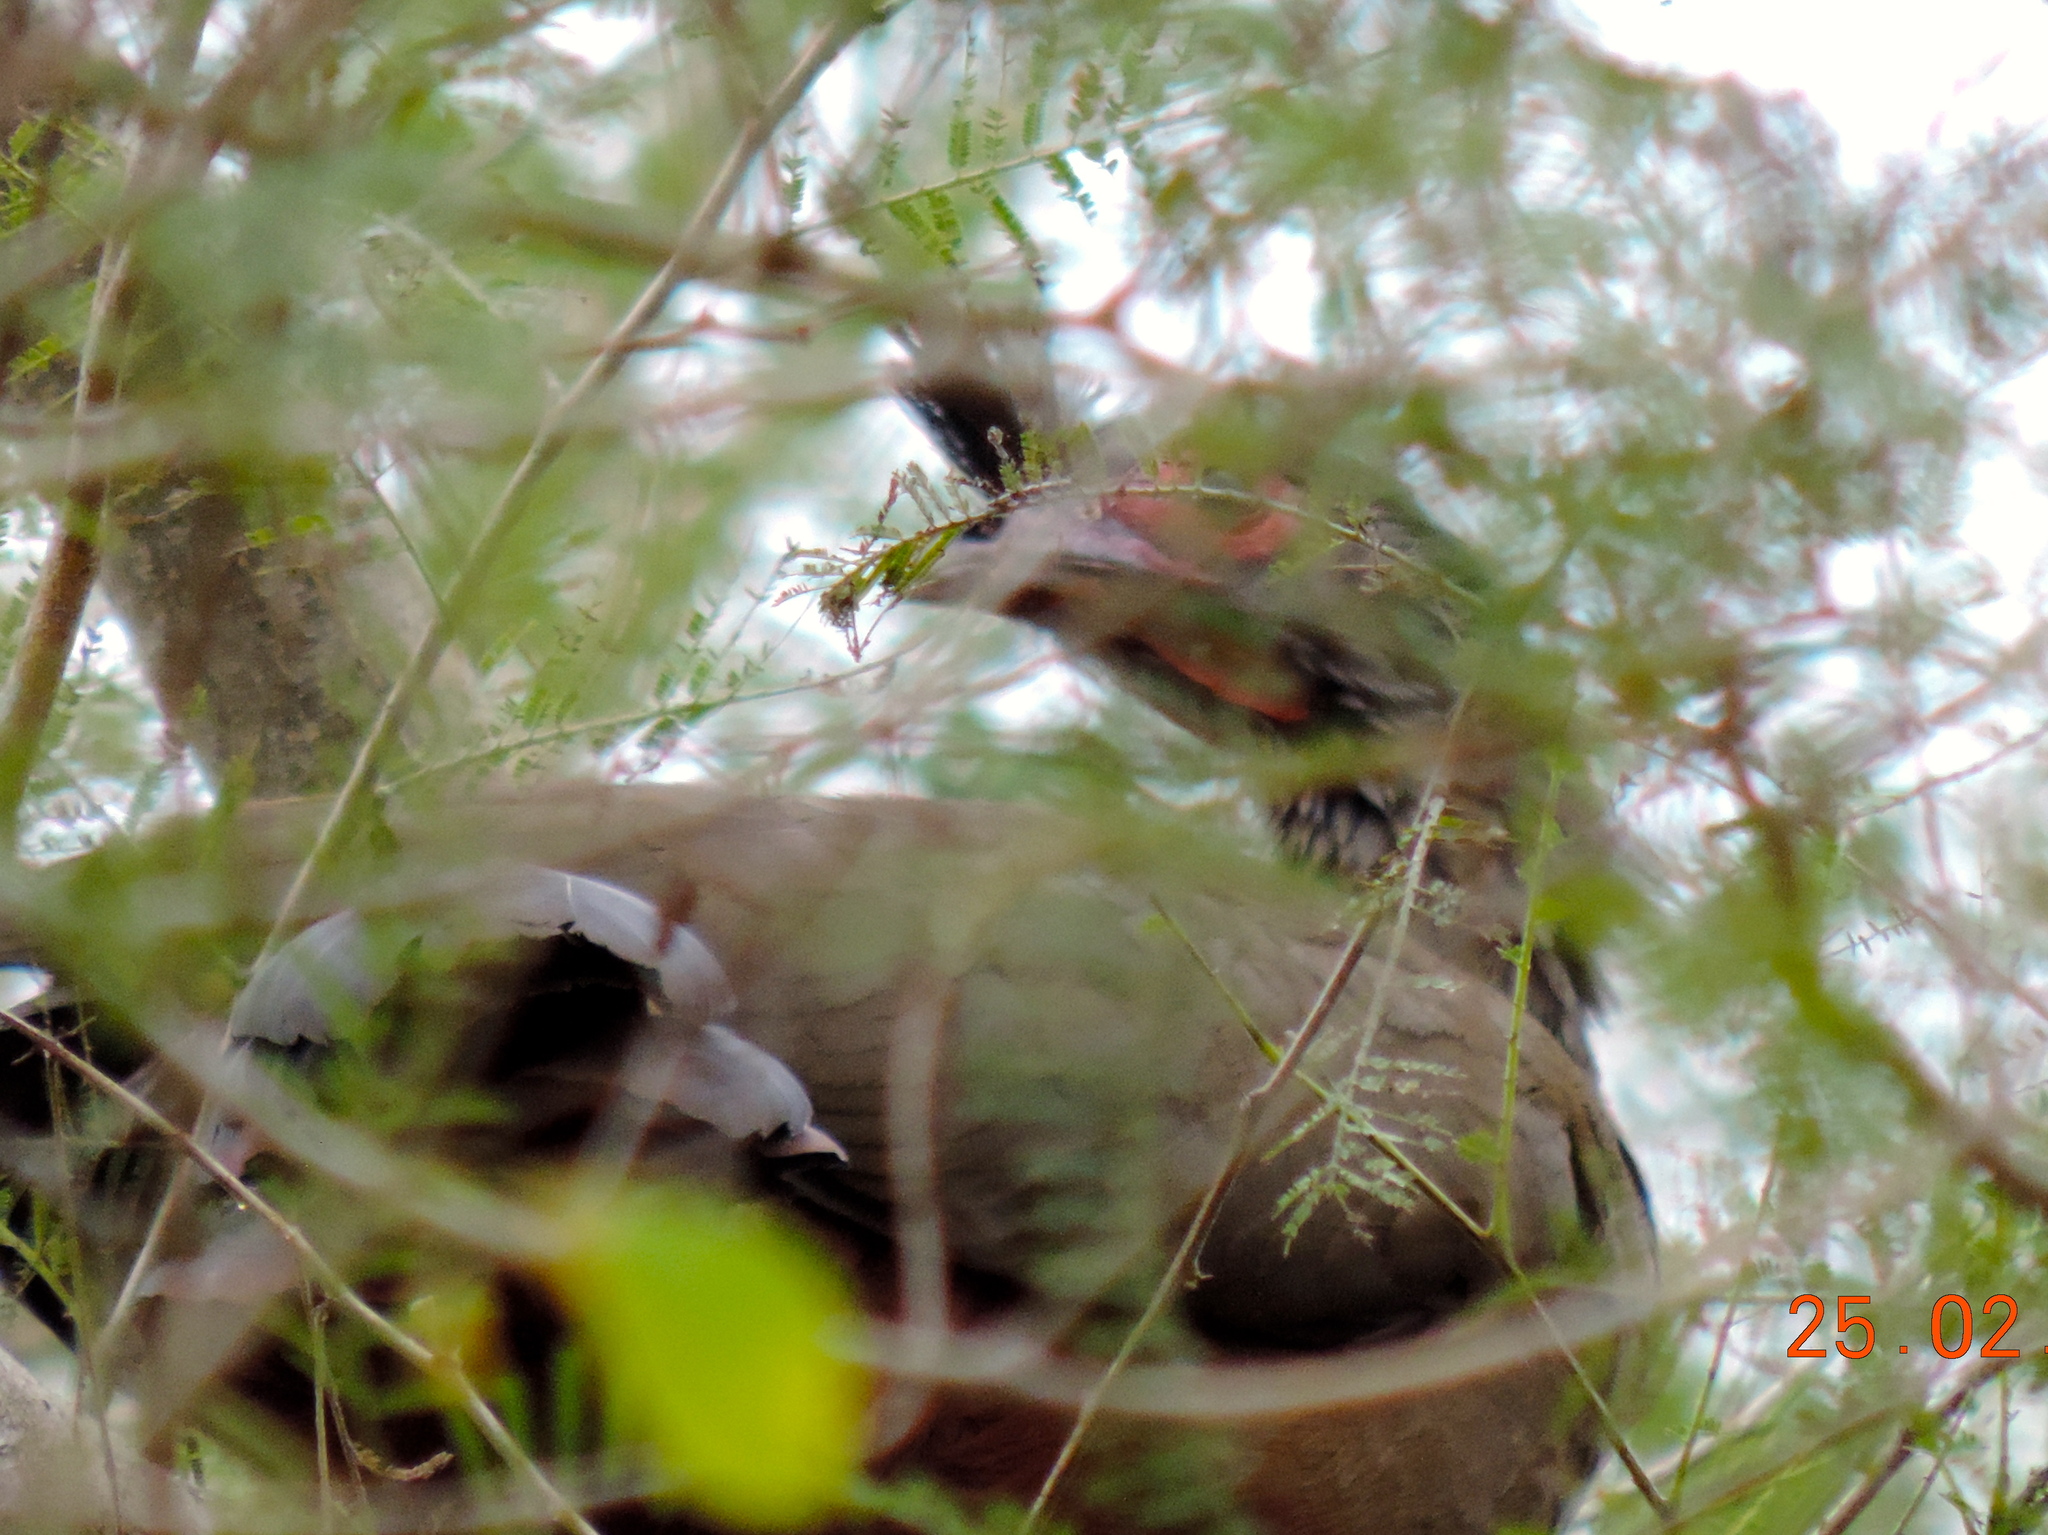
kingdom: Animalia
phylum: Chordata
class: Aves
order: Galliformes
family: Cracidae
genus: Ortalis
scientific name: Ortalis wagleri
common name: Rufous-bellied chachalaca
